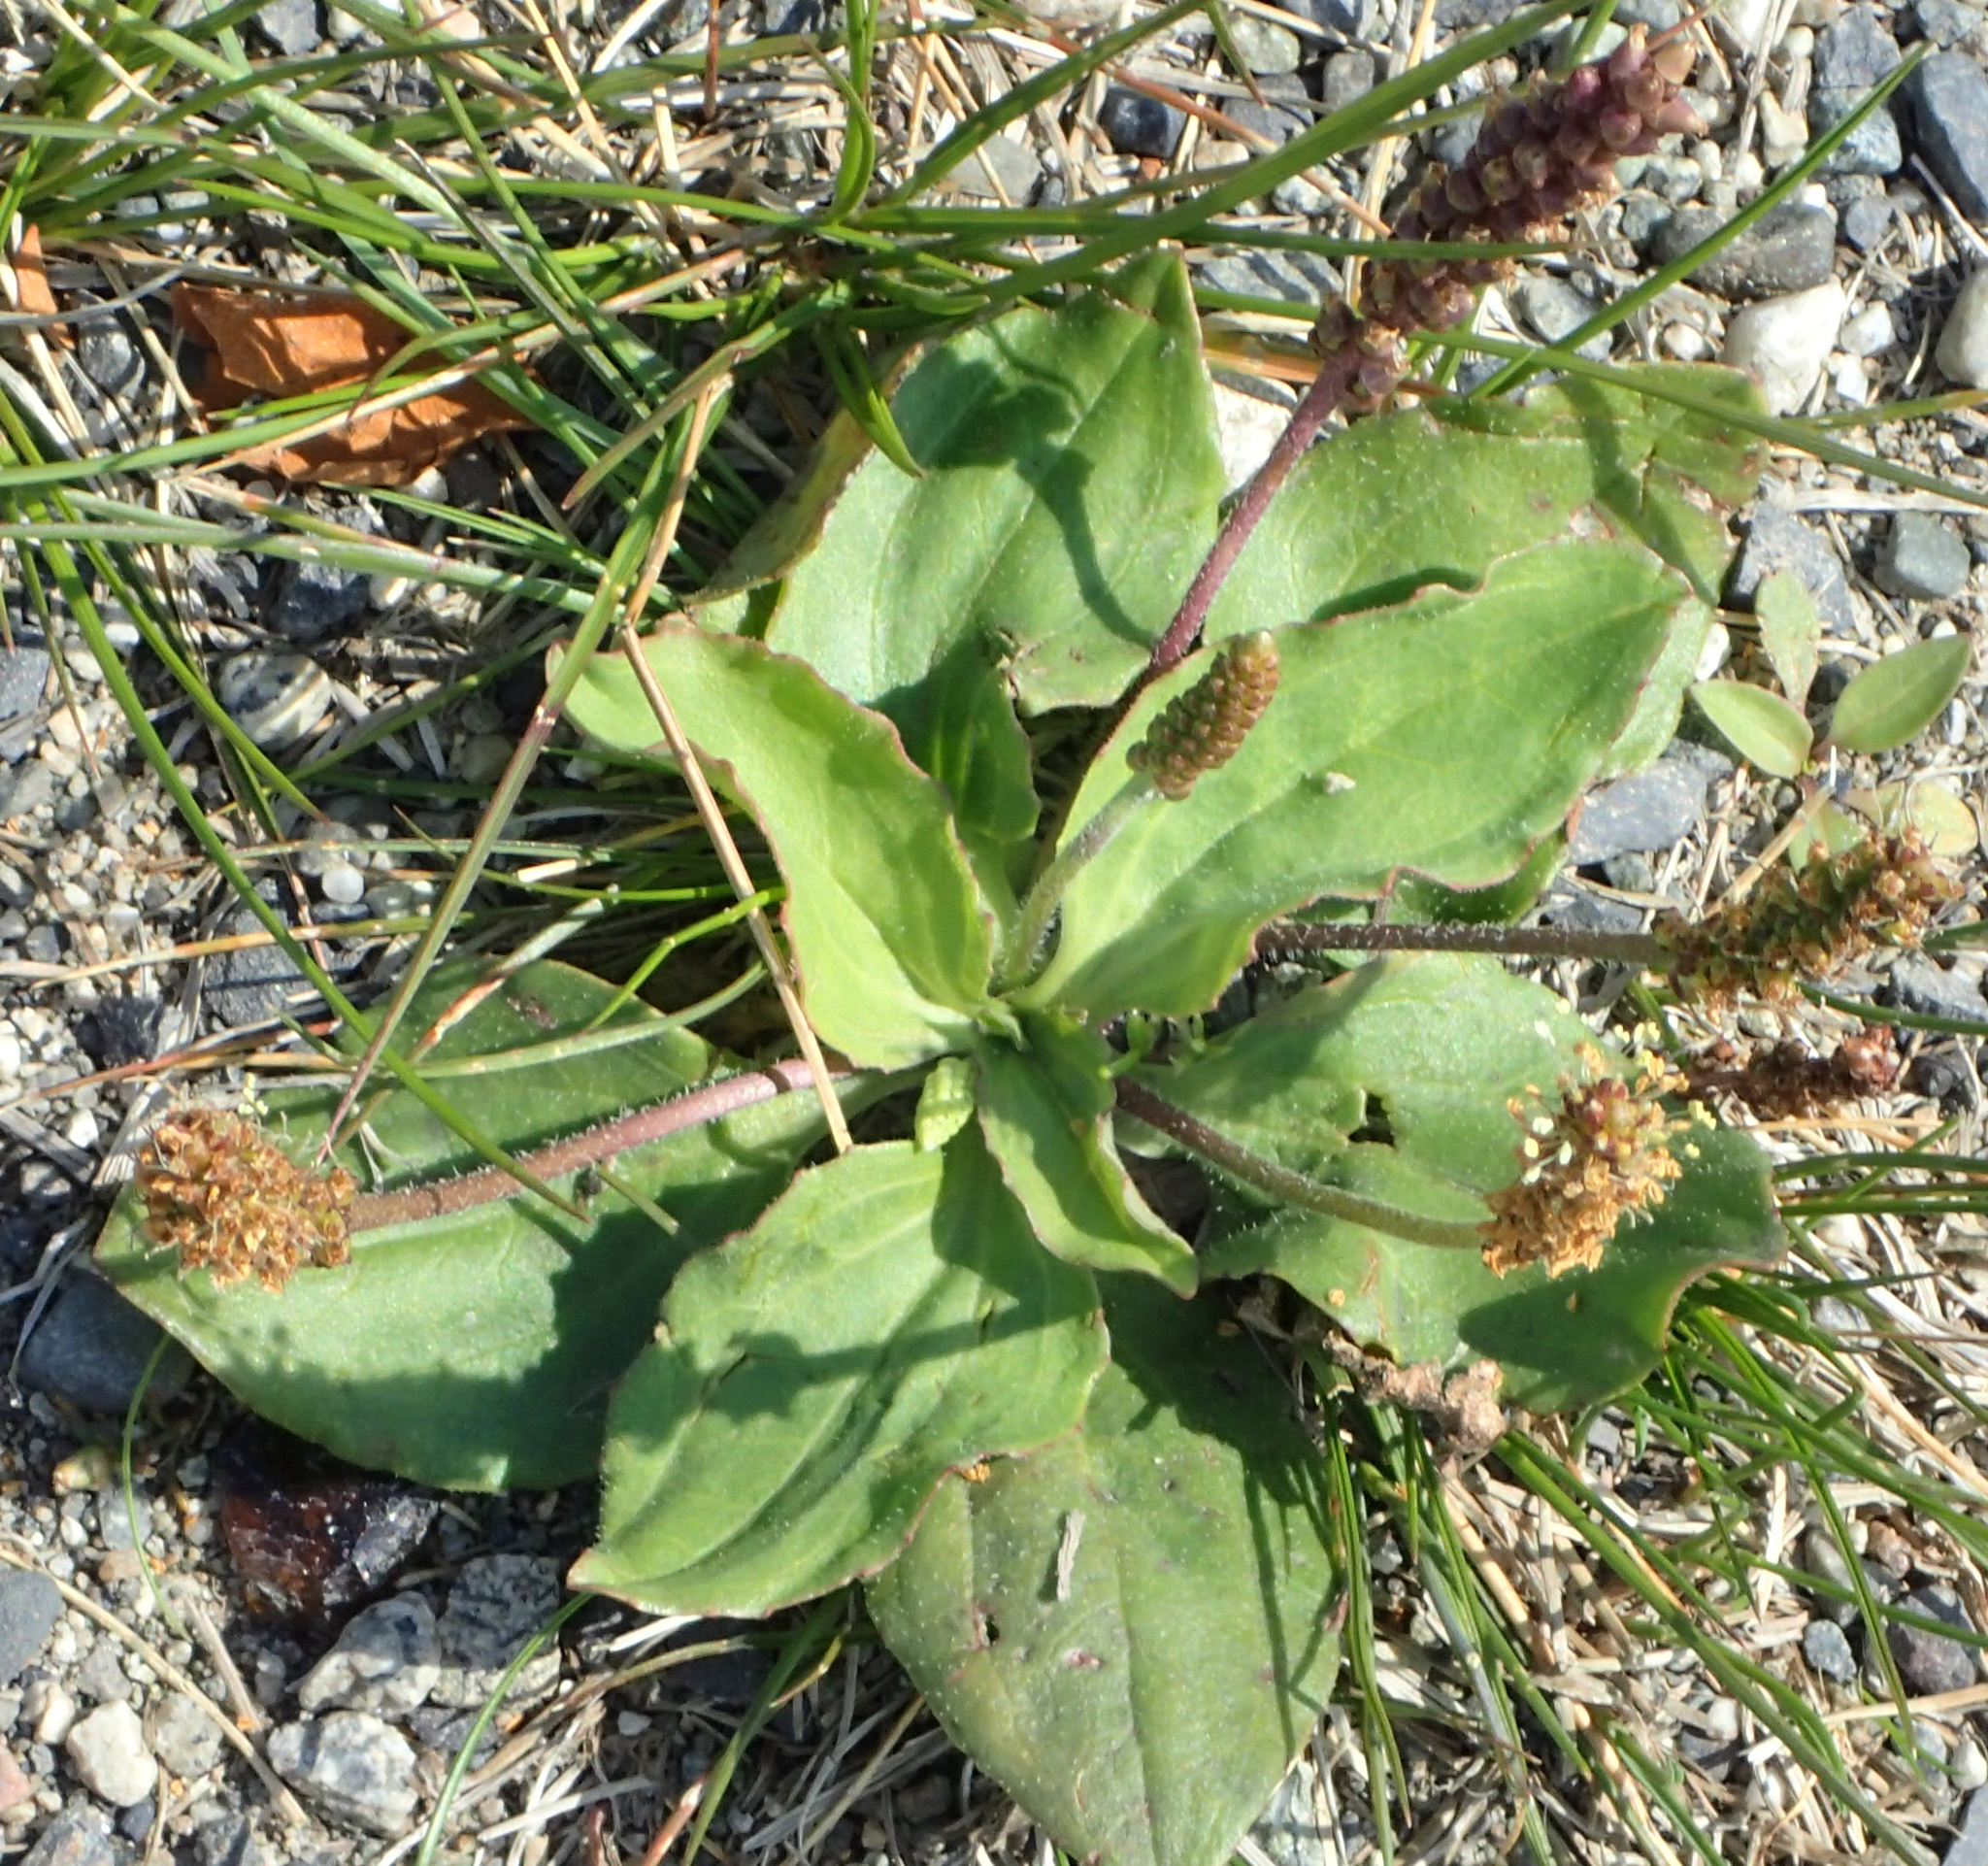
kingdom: Plantae
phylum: Tracheophyta
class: Magnoliopsida
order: Lamiales
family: Plantaginaceae
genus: Plantago
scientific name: Plantago major
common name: Common plantain
